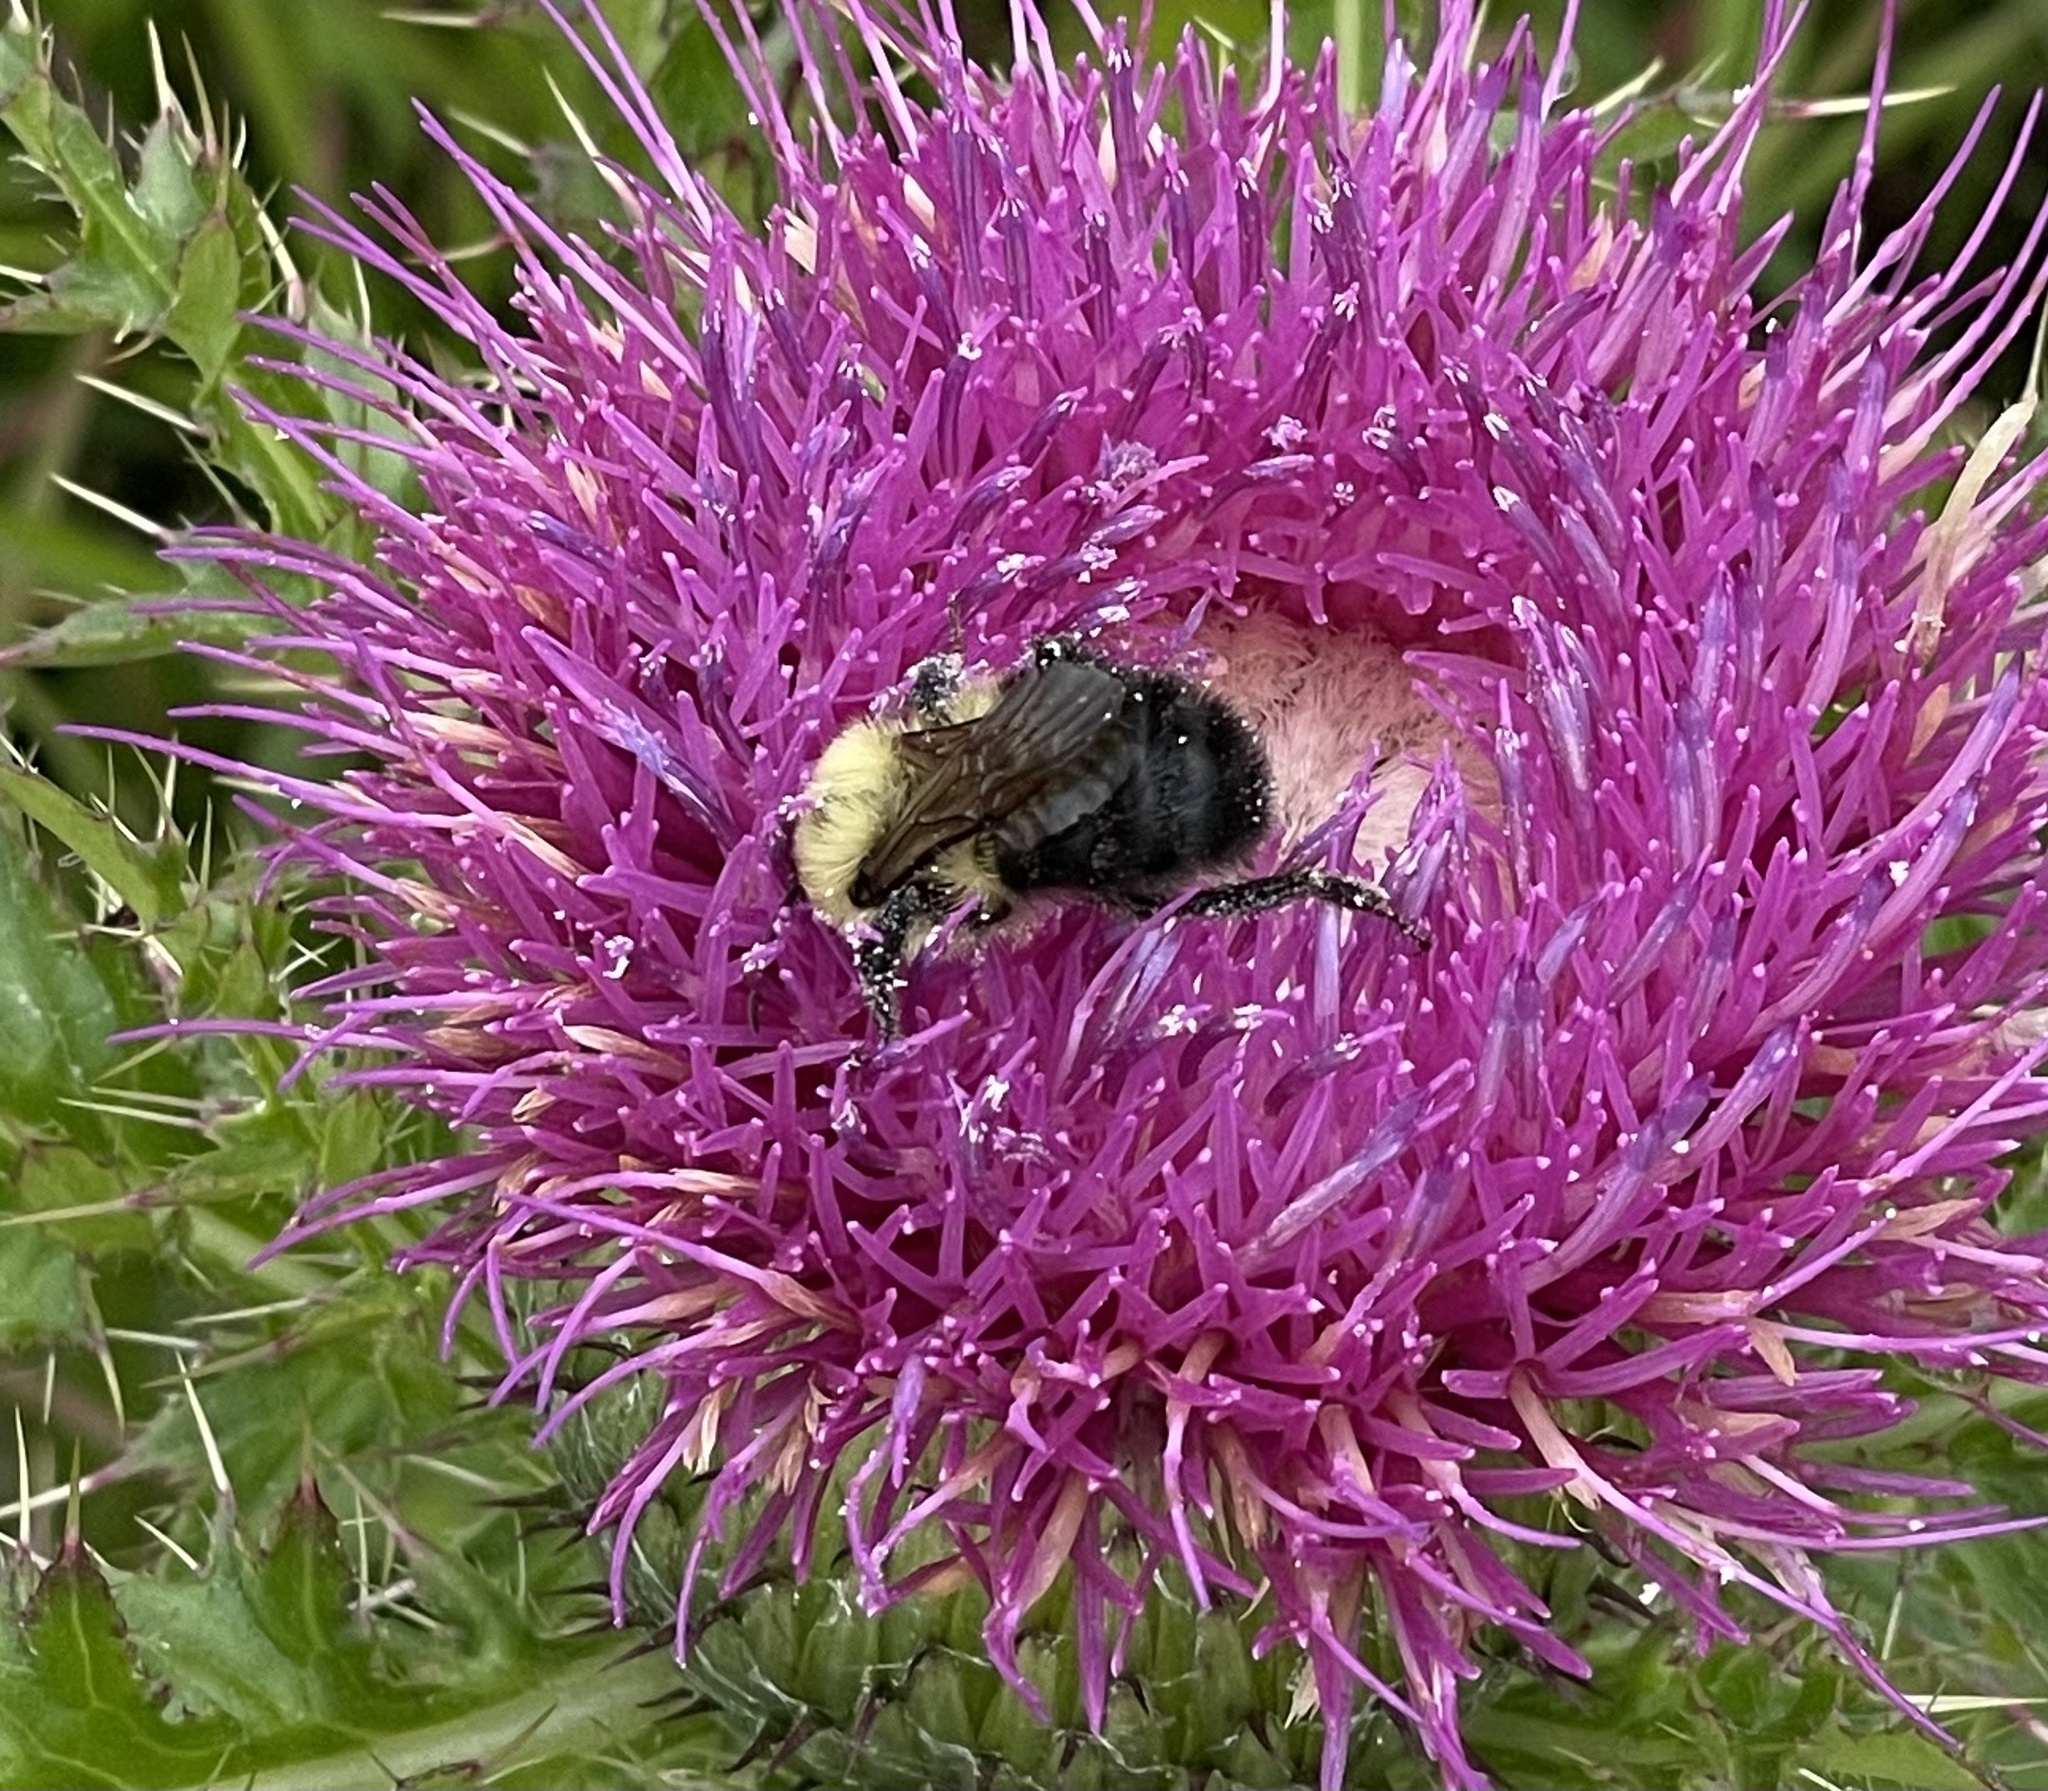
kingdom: Animalia
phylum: Arthropoda
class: Insecta
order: Hymenoptera
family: Apidae
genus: Bombus
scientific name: Bombus bimaculatus
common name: Two-spotted bumble bee
